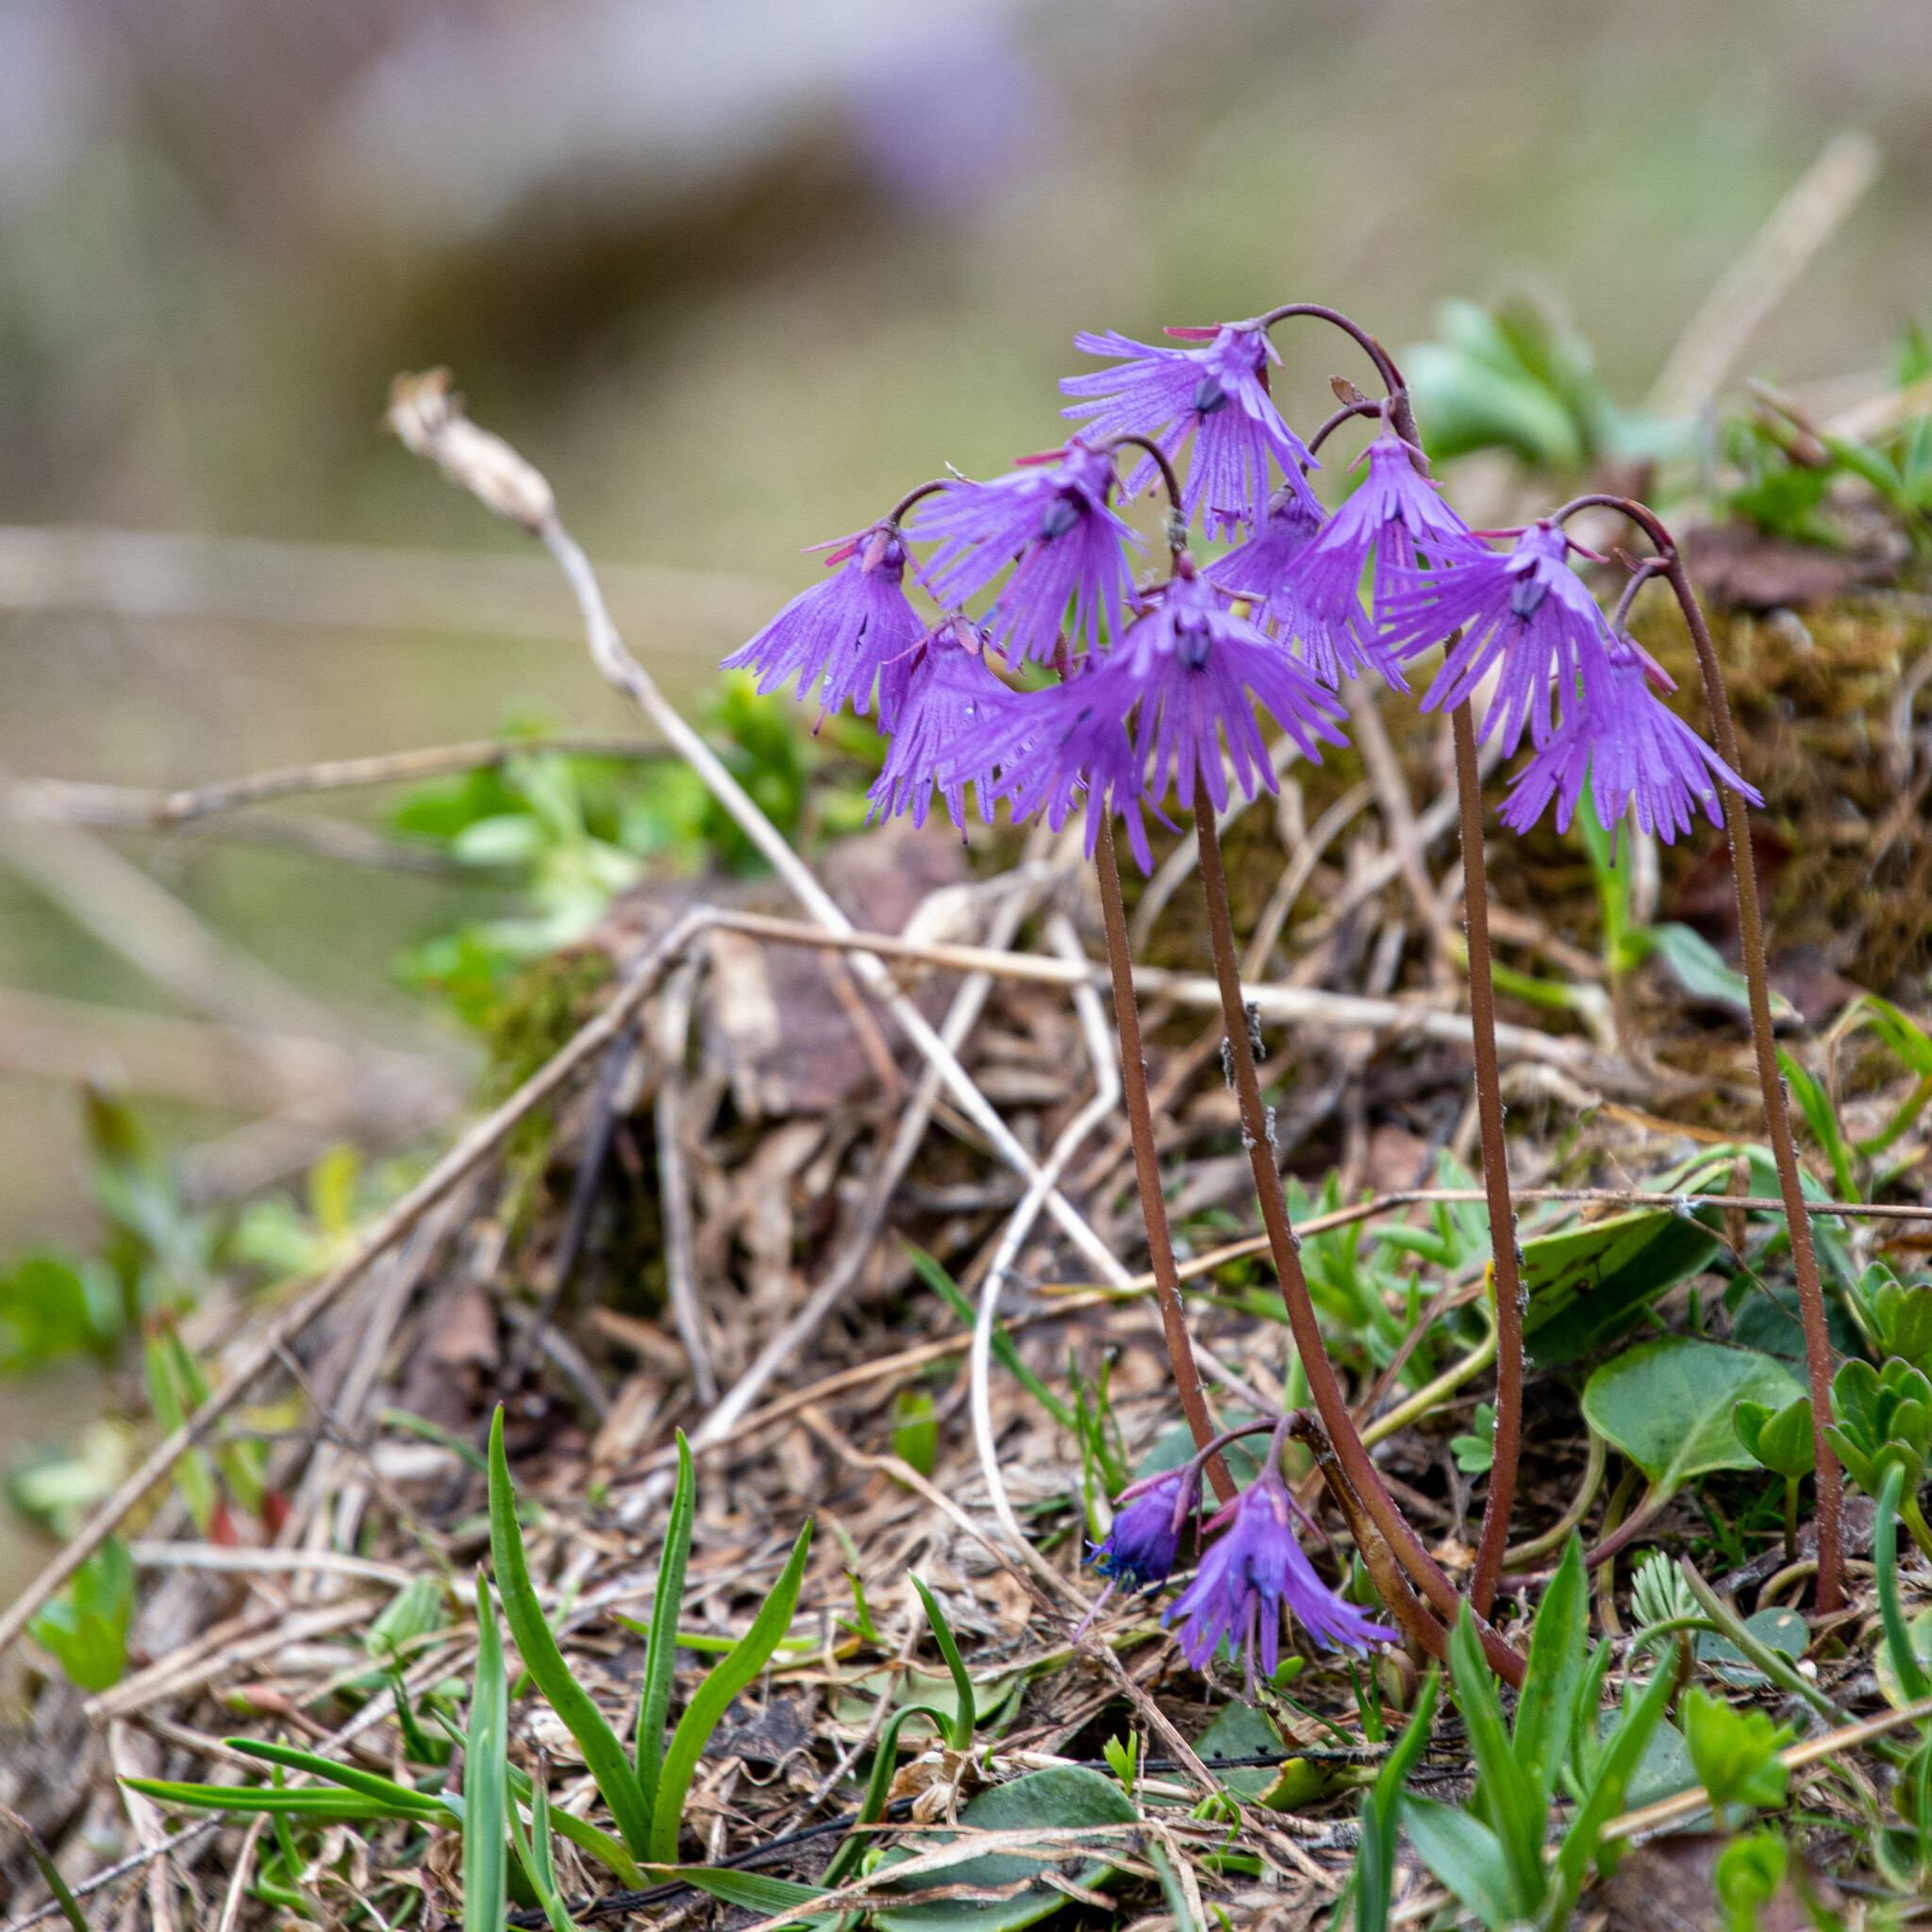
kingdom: Plantae
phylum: Tracheophyta
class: Magnoliopsida
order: Ericales
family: Primulaceae
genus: Soldanella
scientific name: Soldanella alpina
